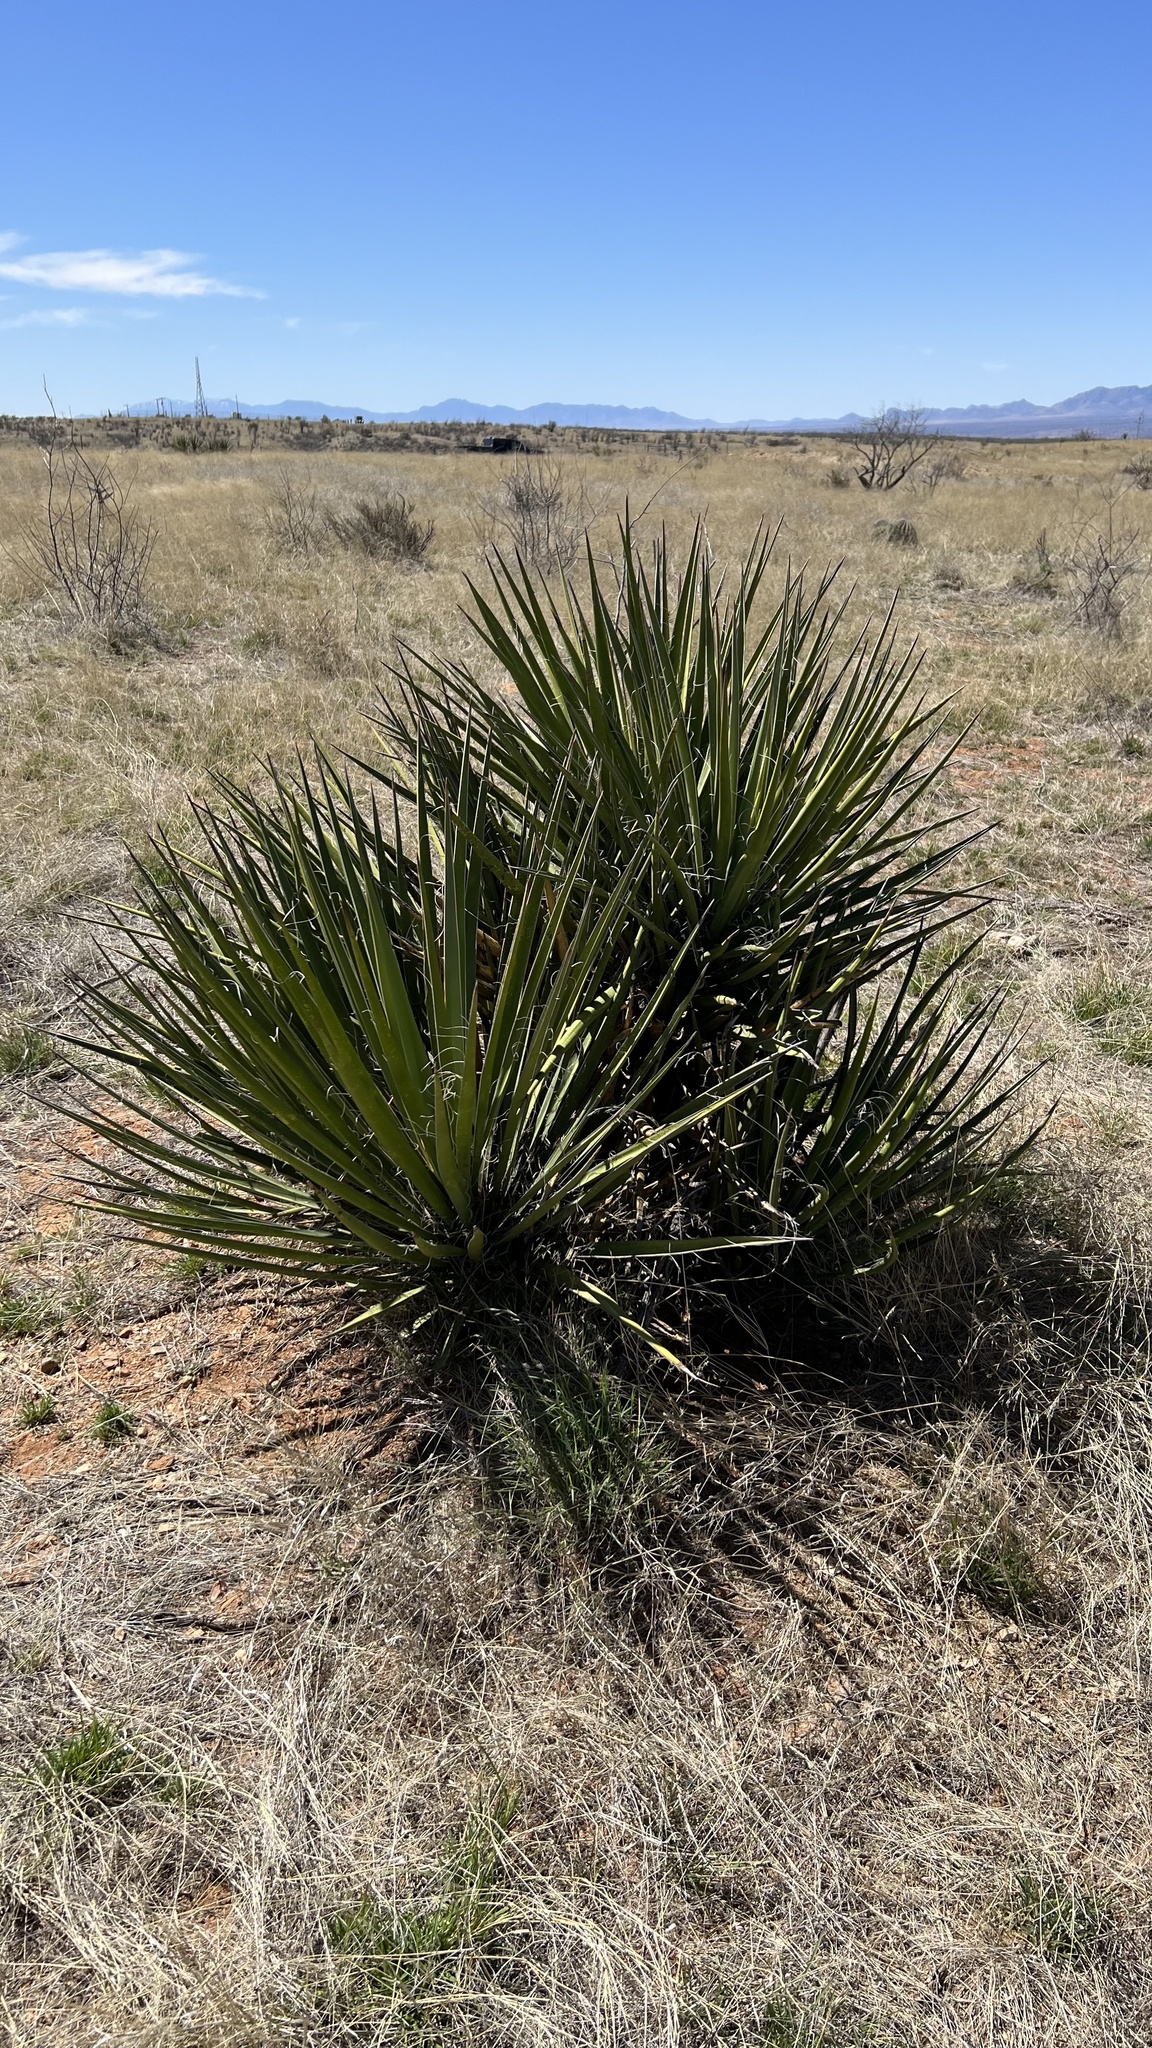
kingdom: Plantae
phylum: Tracheophyta
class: Liliopsida
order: Asparagales
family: Asparagaceae
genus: Yucca
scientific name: Yucca baccata
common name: Banana yucca
